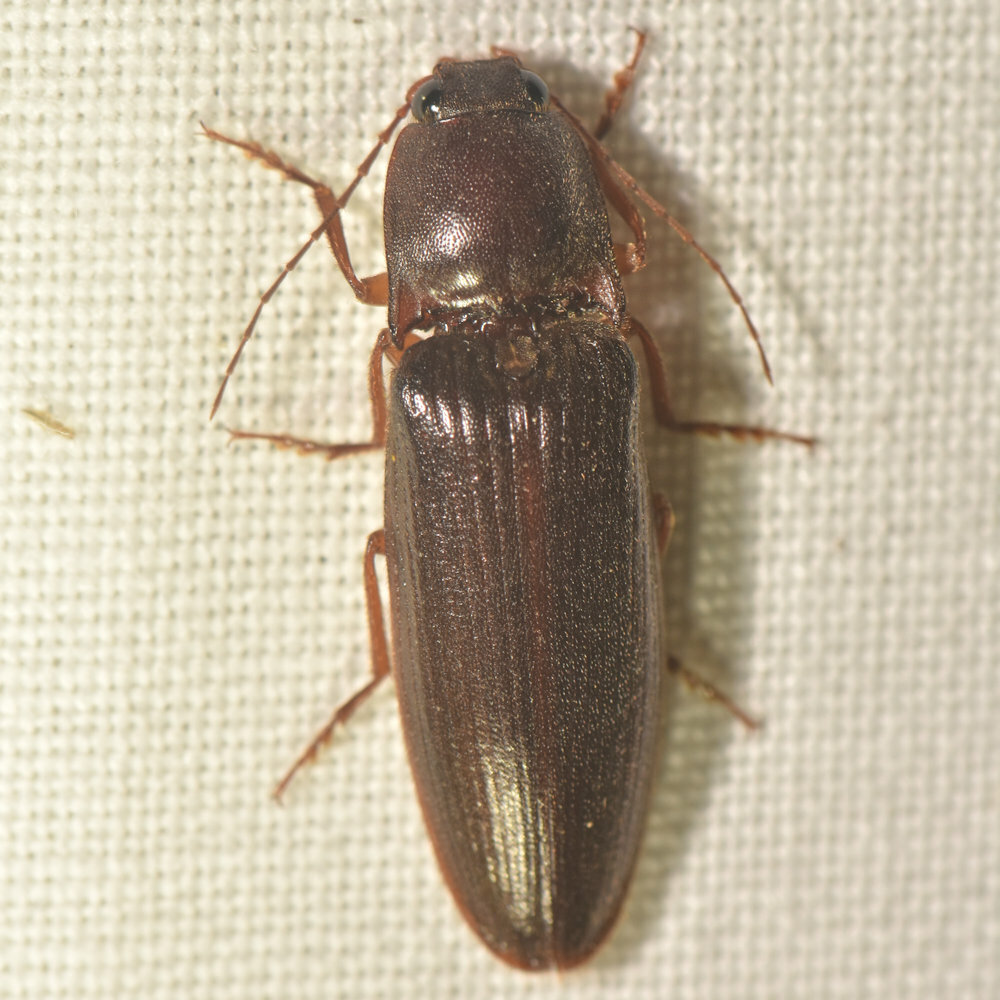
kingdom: Animalia
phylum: Arthropoda
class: Insecta
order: Coleoptera
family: Elateridae
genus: Hemicrepidius
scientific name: Hemicrepidius
